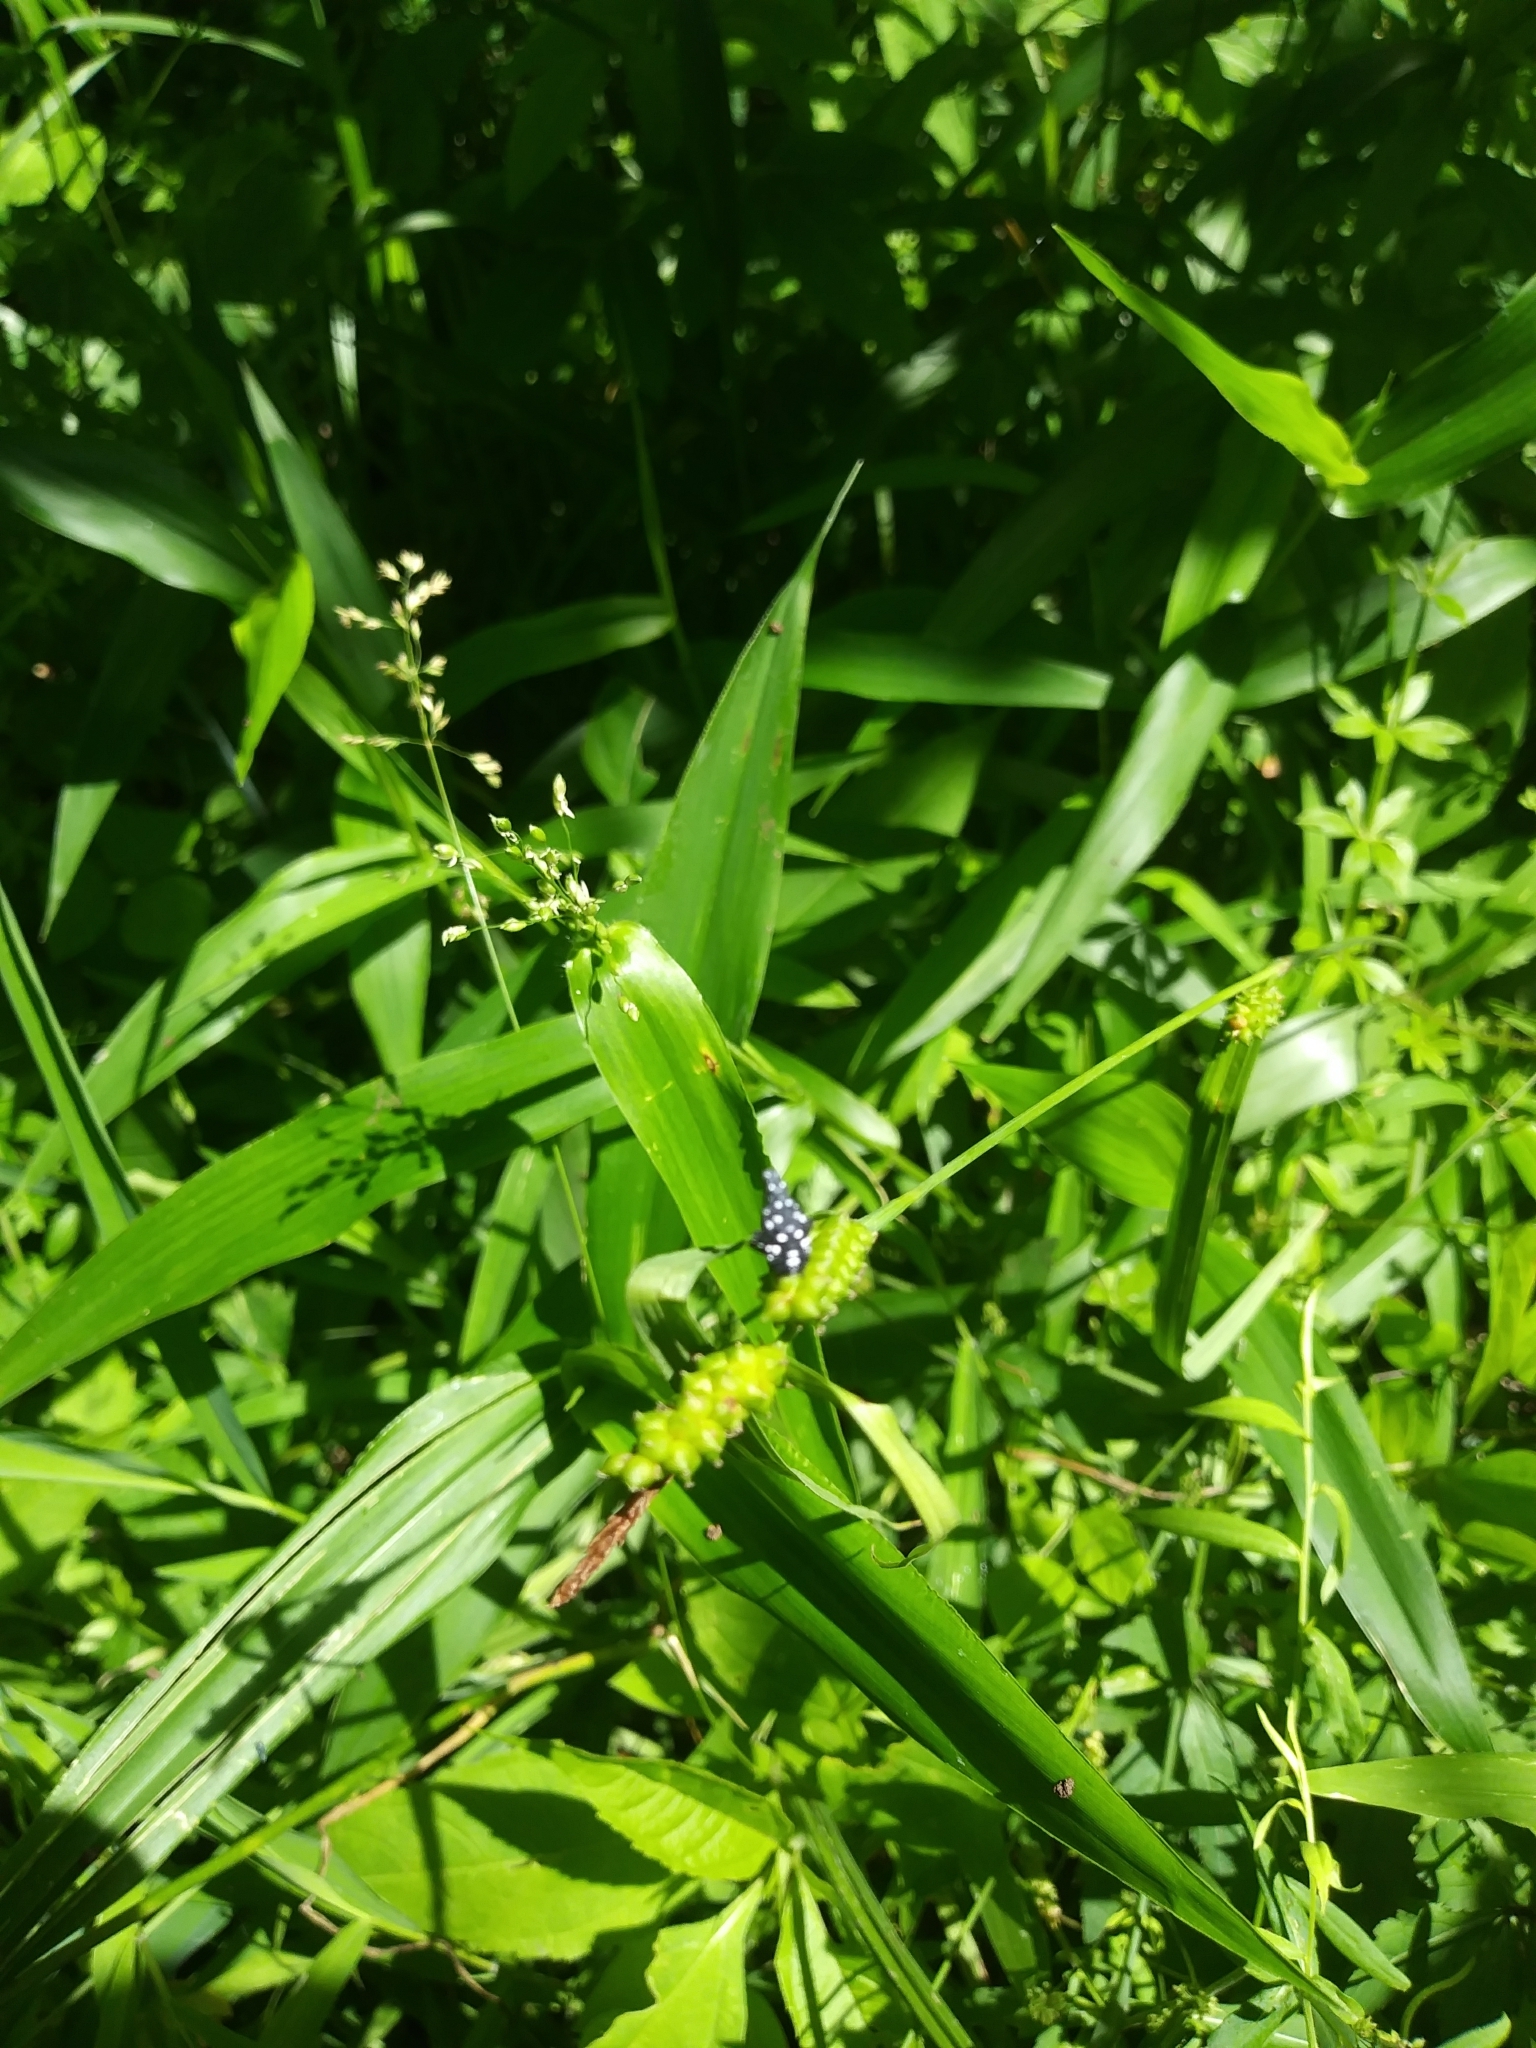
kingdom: Animalia
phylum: Arthropoda
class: Insecta
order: Hemiptera
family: Fulgoridae
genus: Lycorma
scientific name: Lycorma delicatula
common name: Spotted lanternfly
